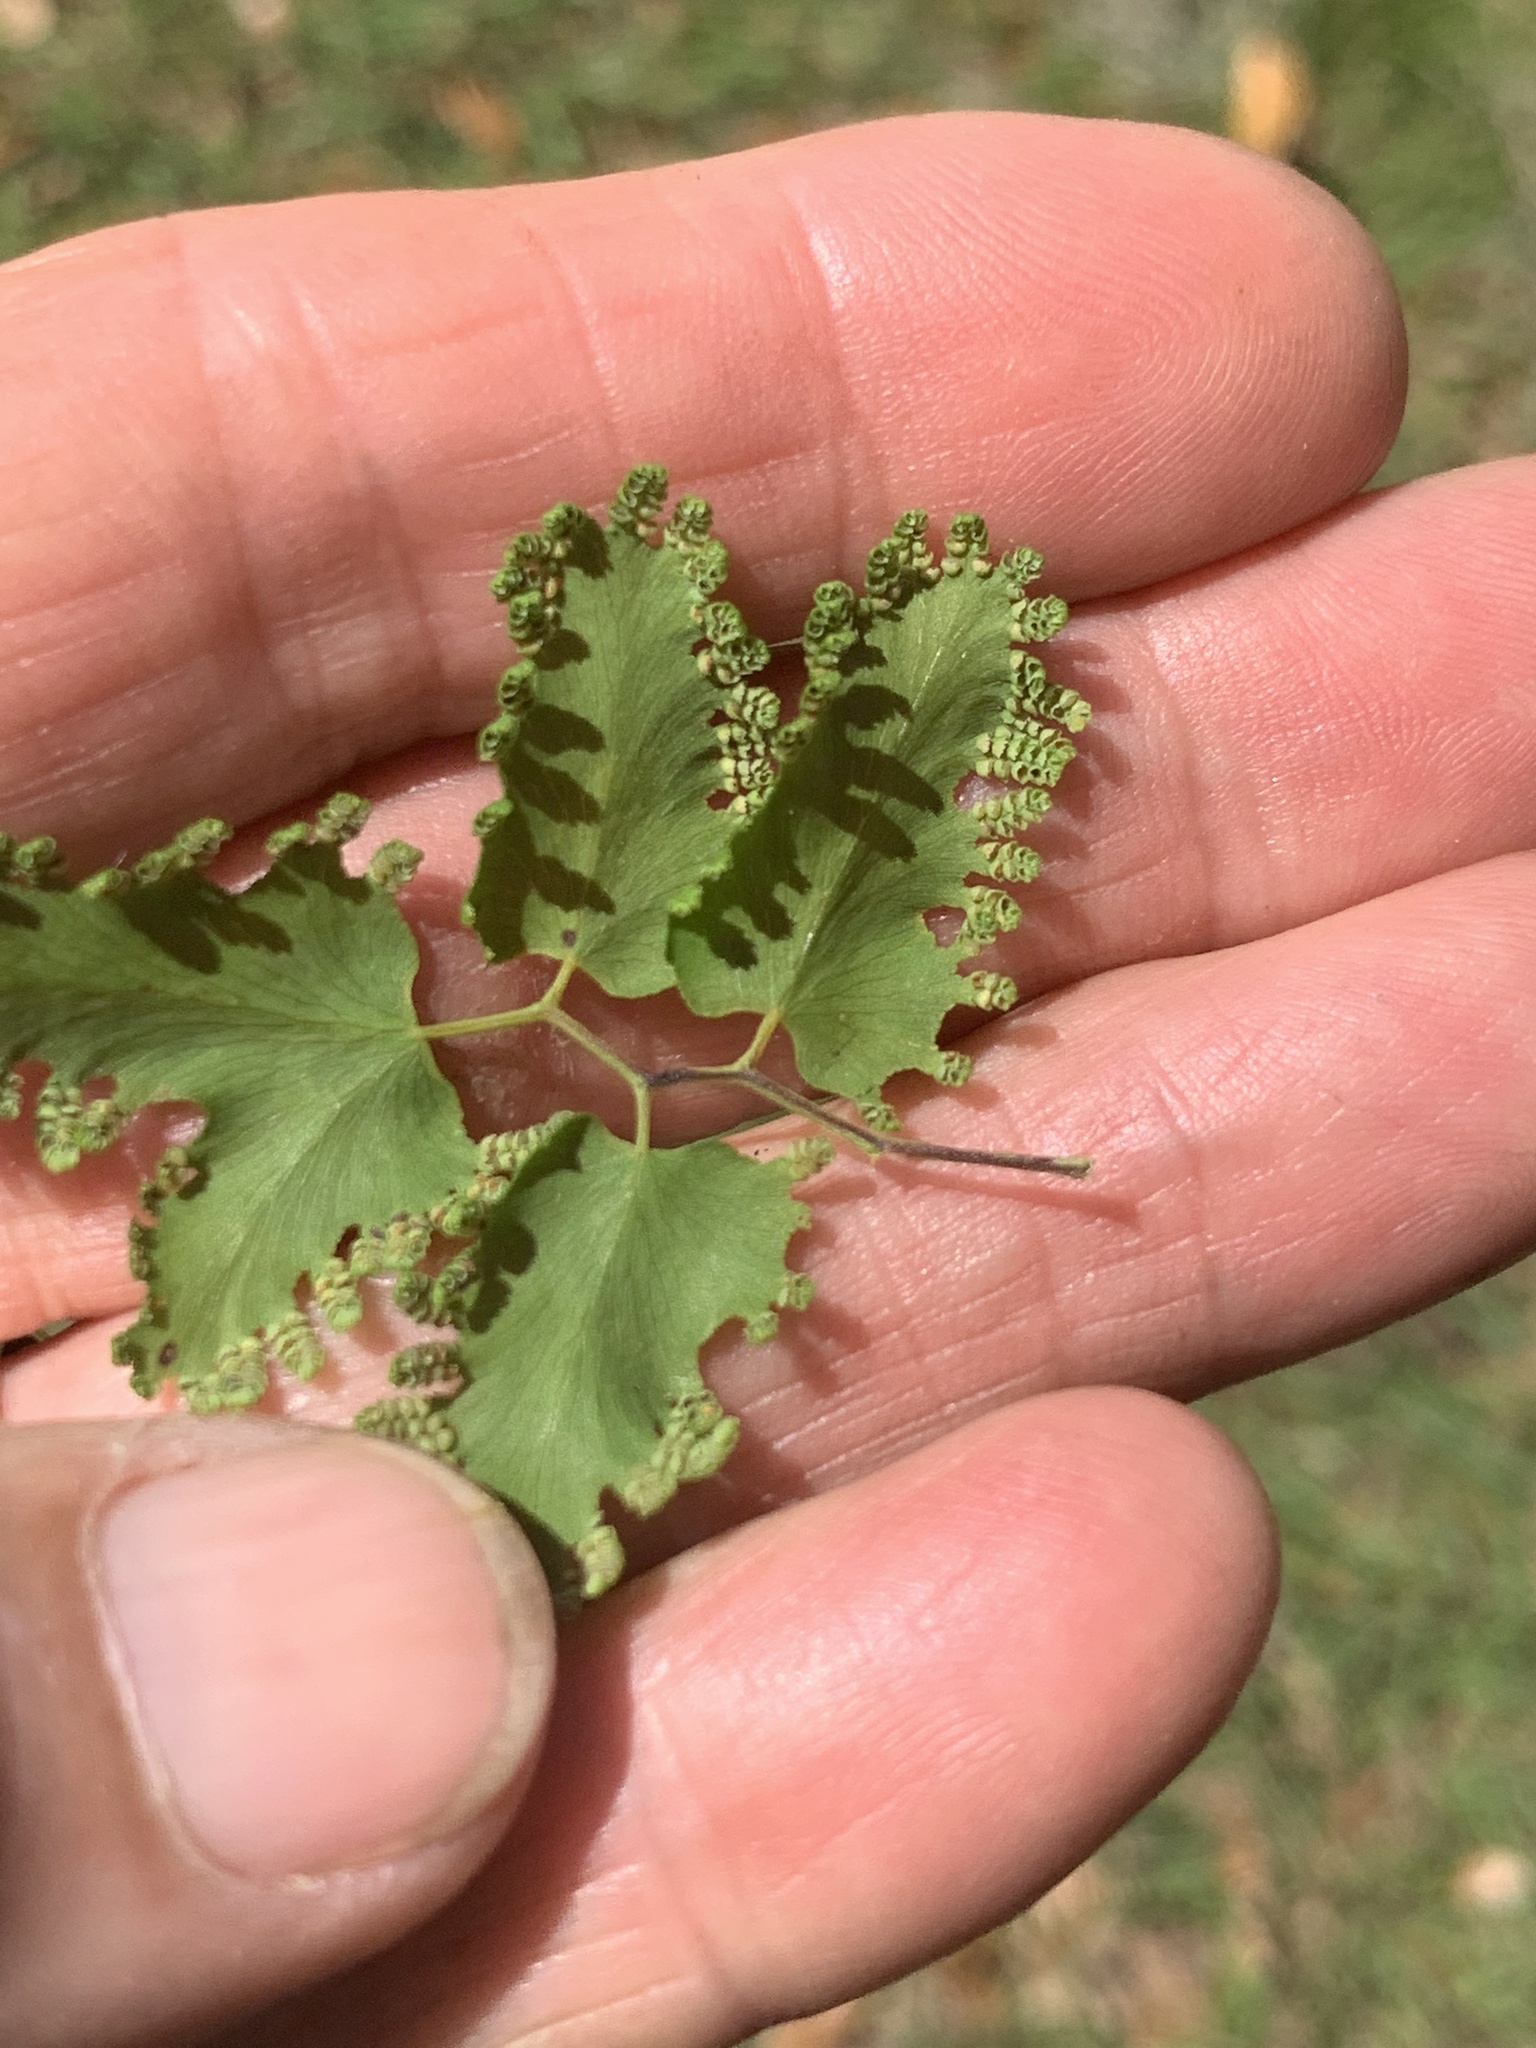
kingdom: Plantae
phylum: Tracheophyta
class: Polypodiopsida
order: Schizaeales
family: Lygodiaceae
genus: Lygodium
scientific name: Lygodium microphyllum
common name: Small-leaf climbing fern
